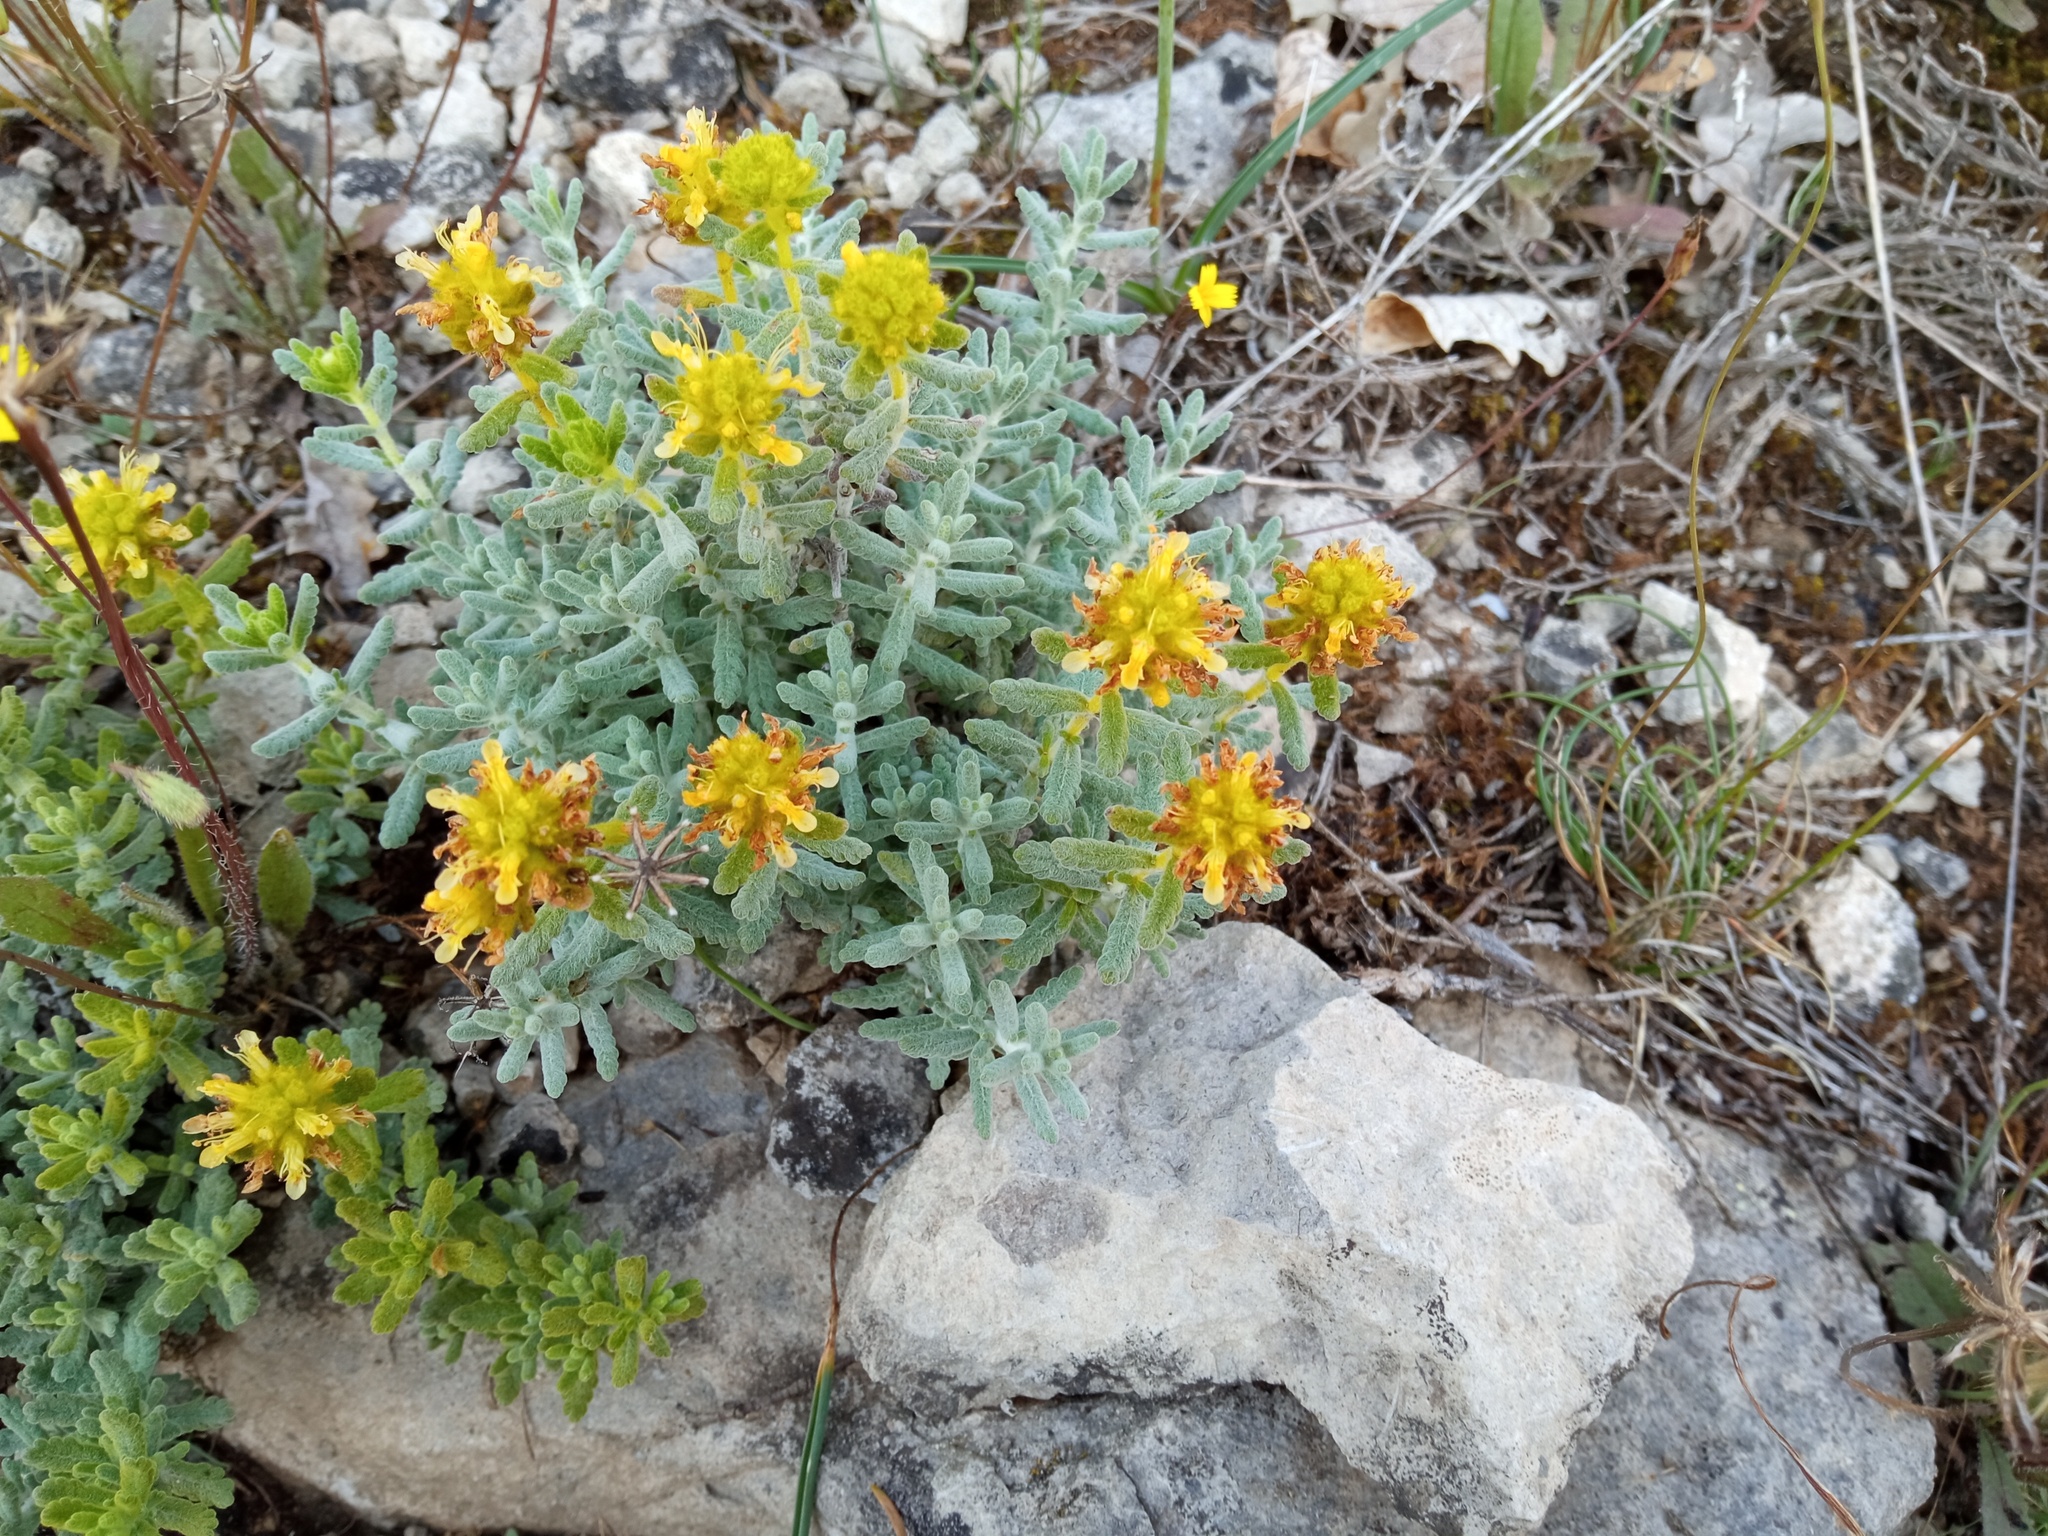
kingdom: Plantae
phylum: Tracheophyta
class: Magnoliopsida
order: Lamiales
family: Lamiaceae
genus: Teucrium
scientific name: Teucrium aureum
